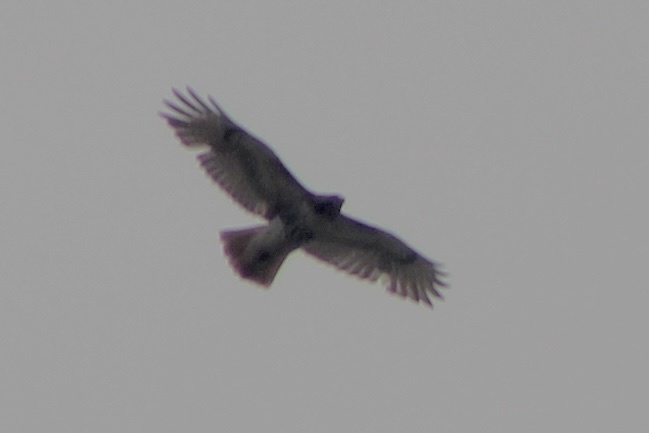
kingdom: Animalia
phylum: Chordata
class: Aves
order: Accipitriformes
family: Accipitridae
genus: Buteo
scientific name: Buteo jamaicensis
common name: Red-tailed hawk
